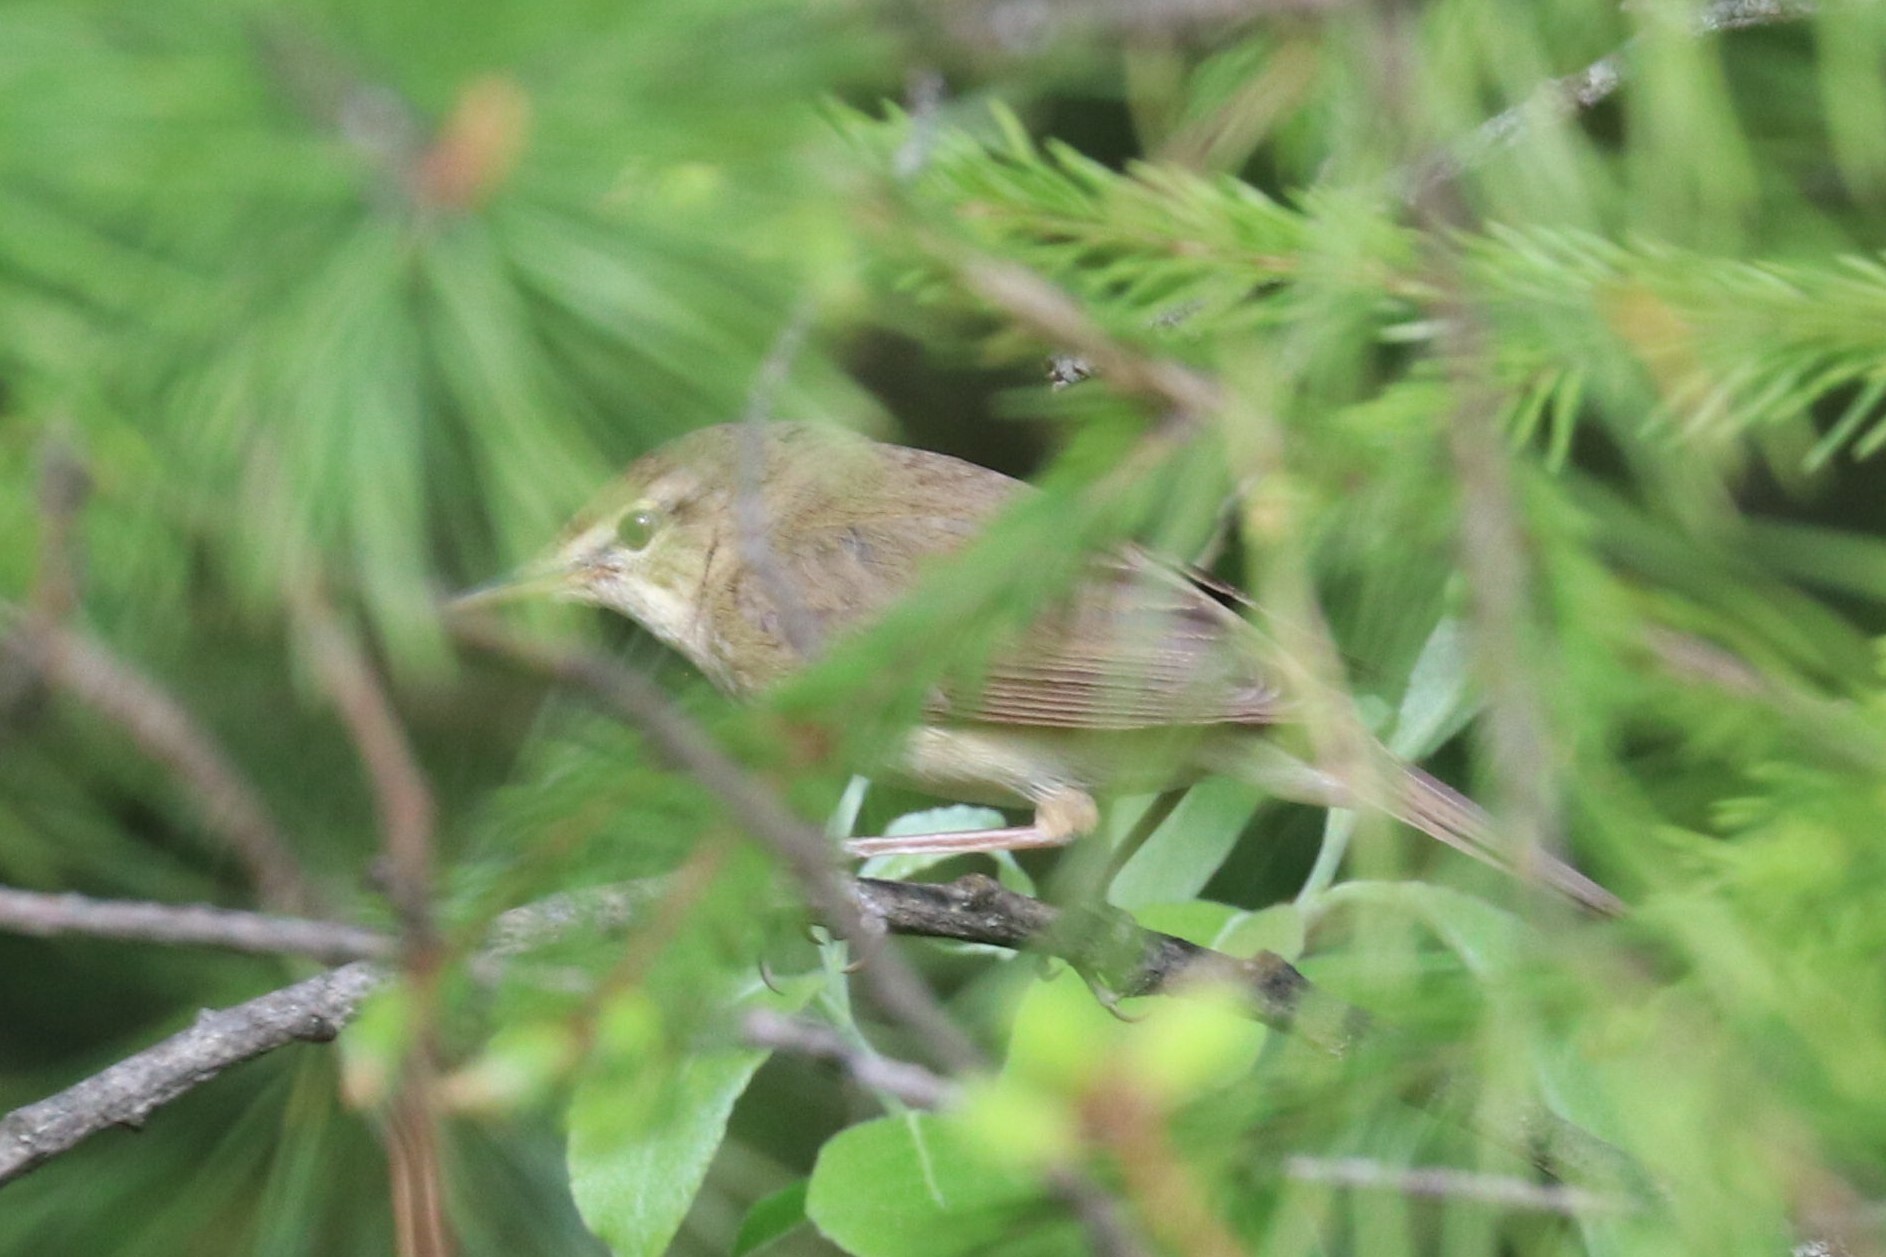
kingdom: Animalia
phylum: Chordata
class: Aves
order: Passeriformes
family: Acrocephalidae
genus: Acrocephalus
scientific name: Acrocephalus dumetorum
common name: Blyth's reed warbler
